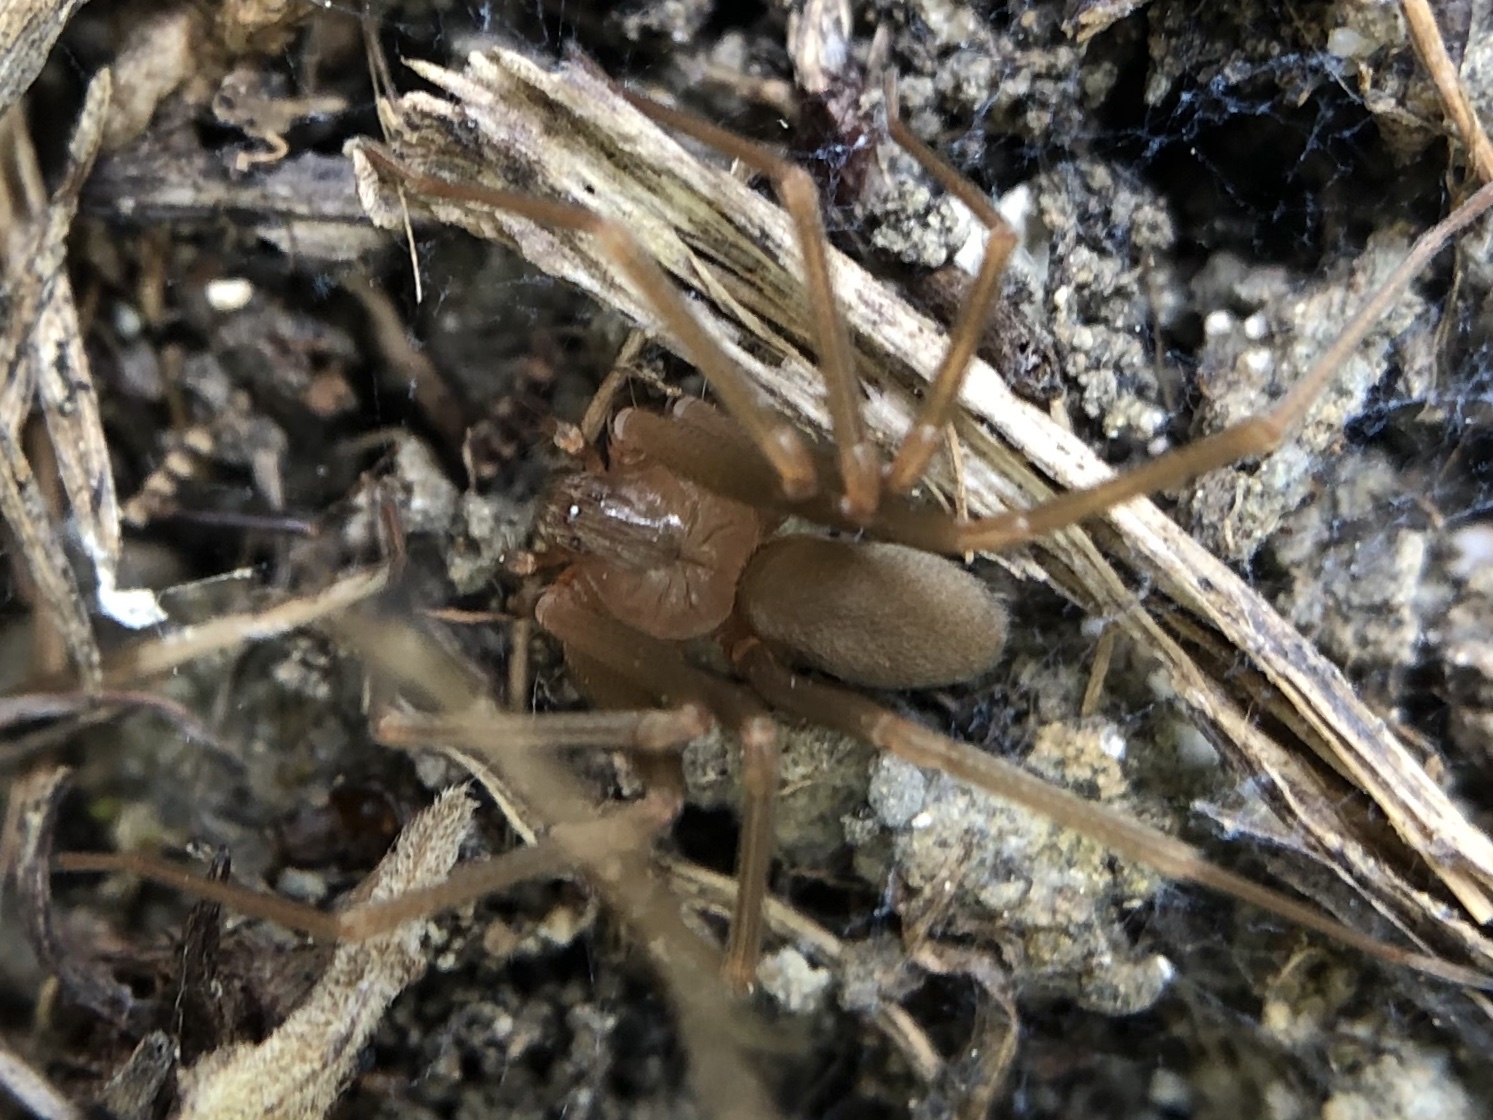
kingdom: Animalia
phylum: Arthropoda
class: Arachnida
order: Araneae
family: Sicariidae
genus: Loxosceles
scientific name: Loxosceles rufescens
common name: Mediterranean recluse spider
